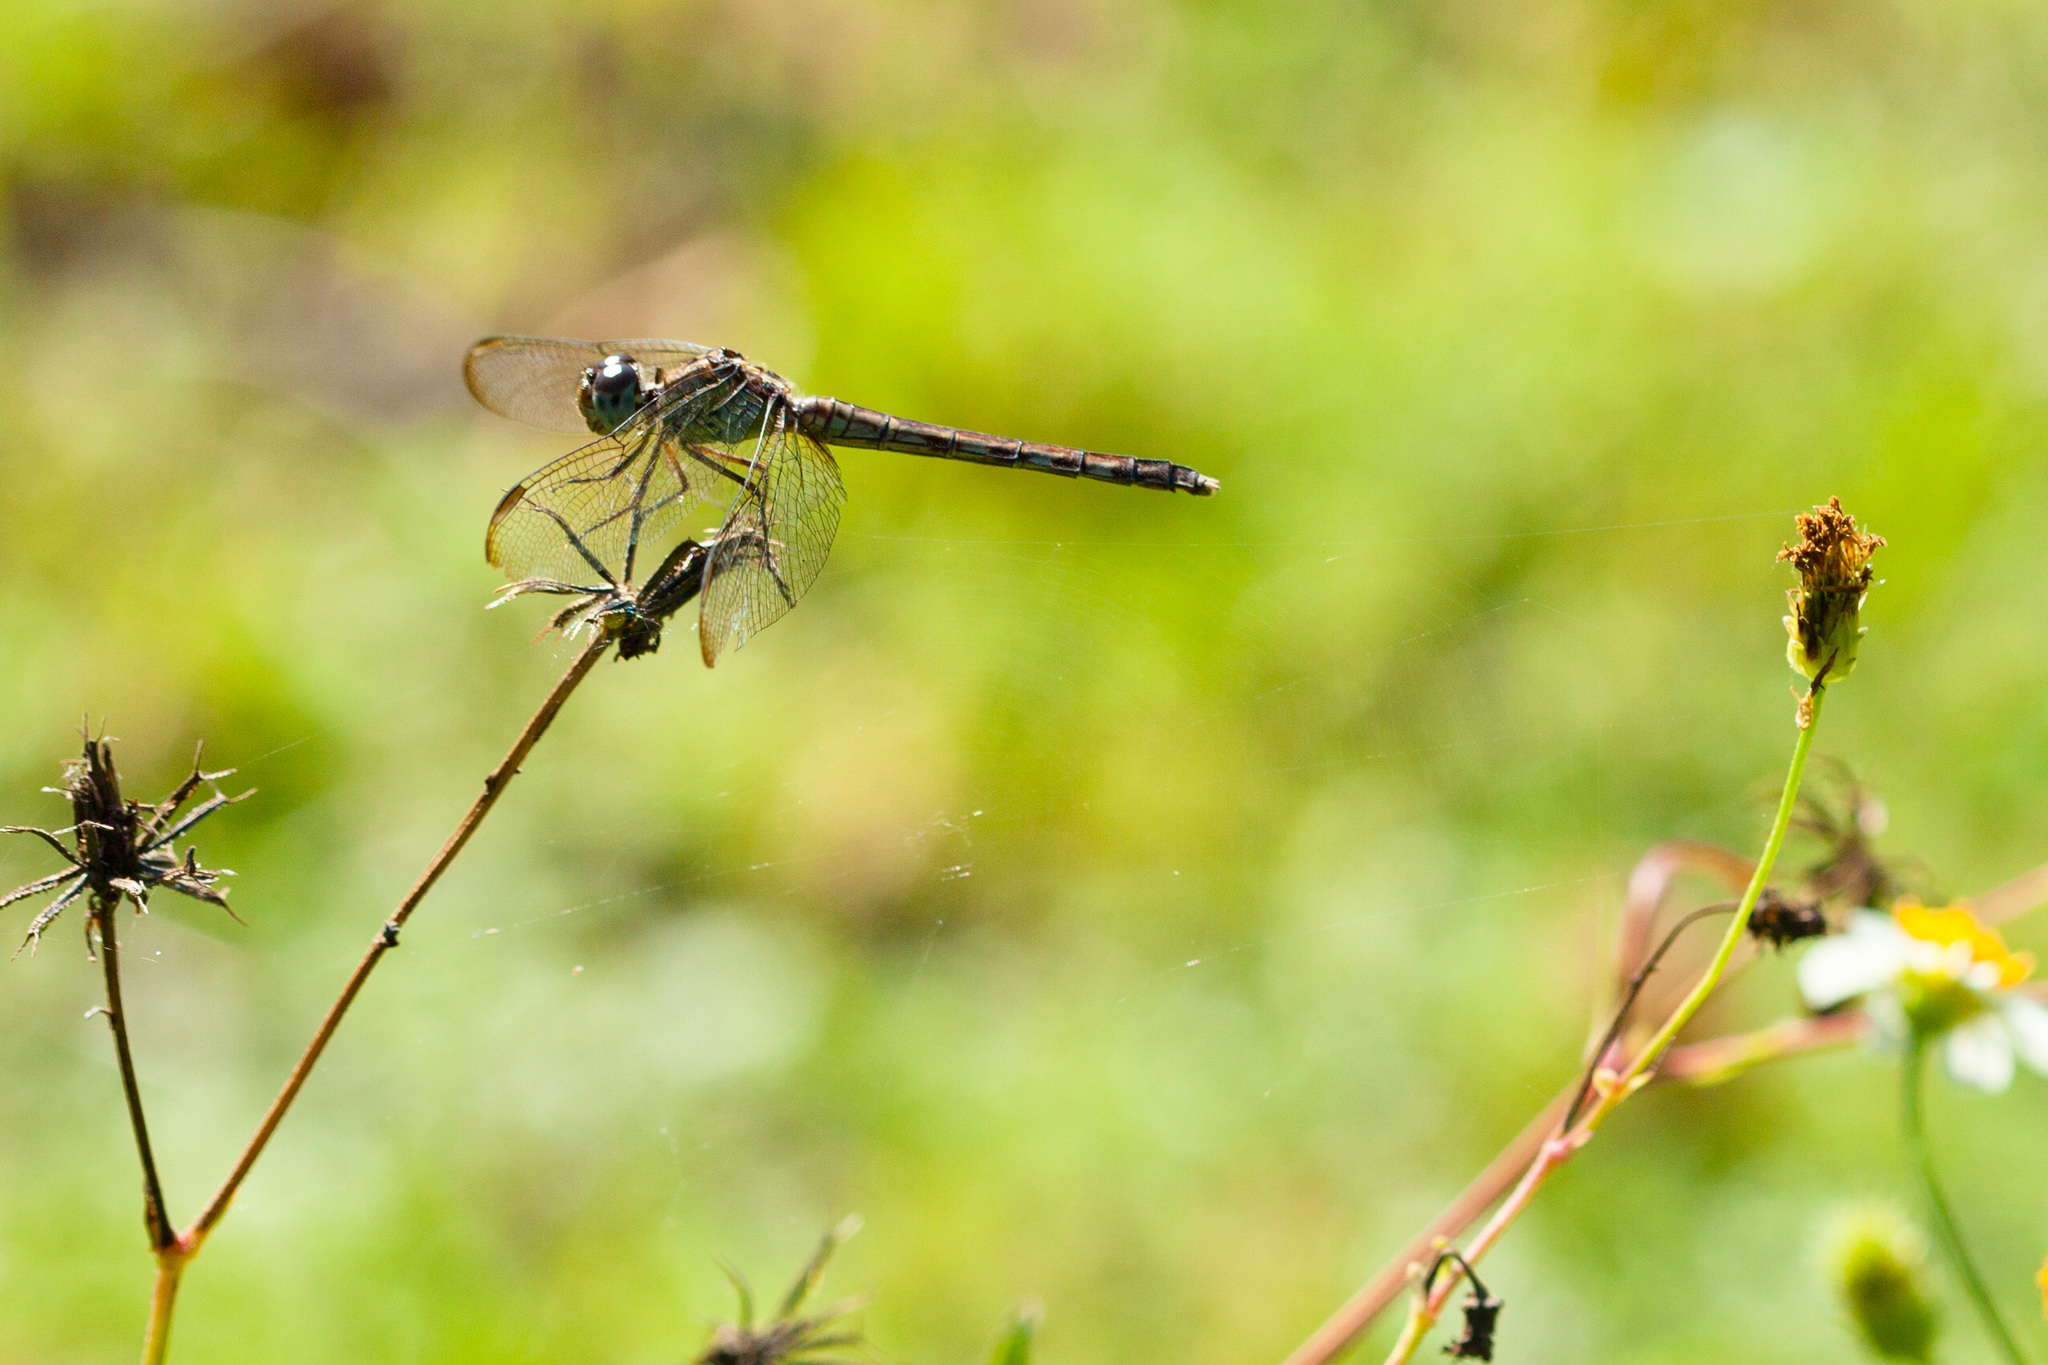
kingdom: Animalia
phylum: Arthropoda
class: Insecta
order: Odonata
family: Libellulidae
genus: Erythrodiplax
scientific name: Erythrodiplax umbrata
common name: Band-winged dragonlet
